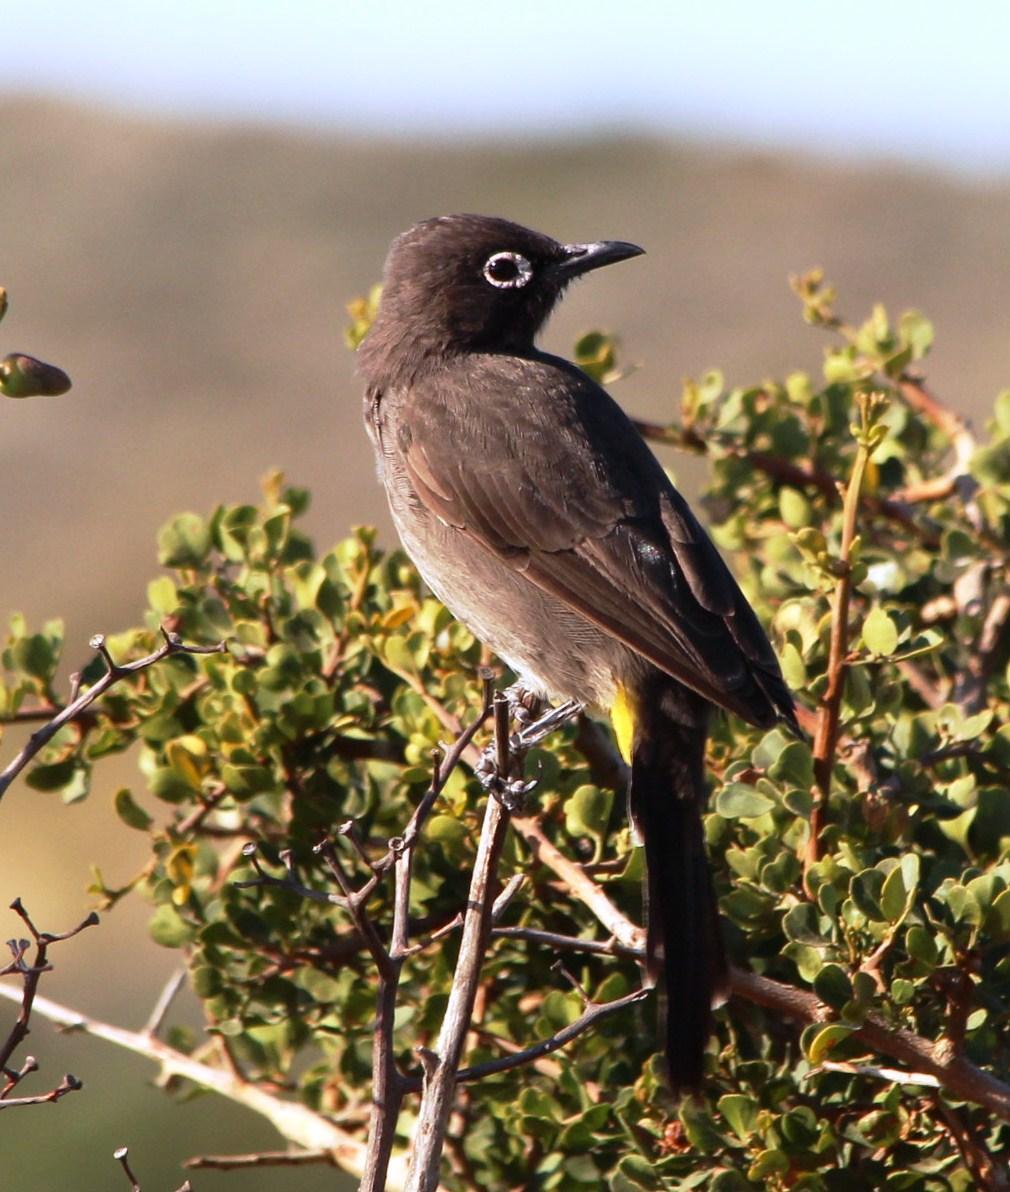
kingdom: Animalia
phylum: Chordata
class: Aves
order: Passeriformes
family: Pycnonotidae
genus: Pycnonotus
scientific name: Pycnonotus capensis
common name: Cape bulbul
